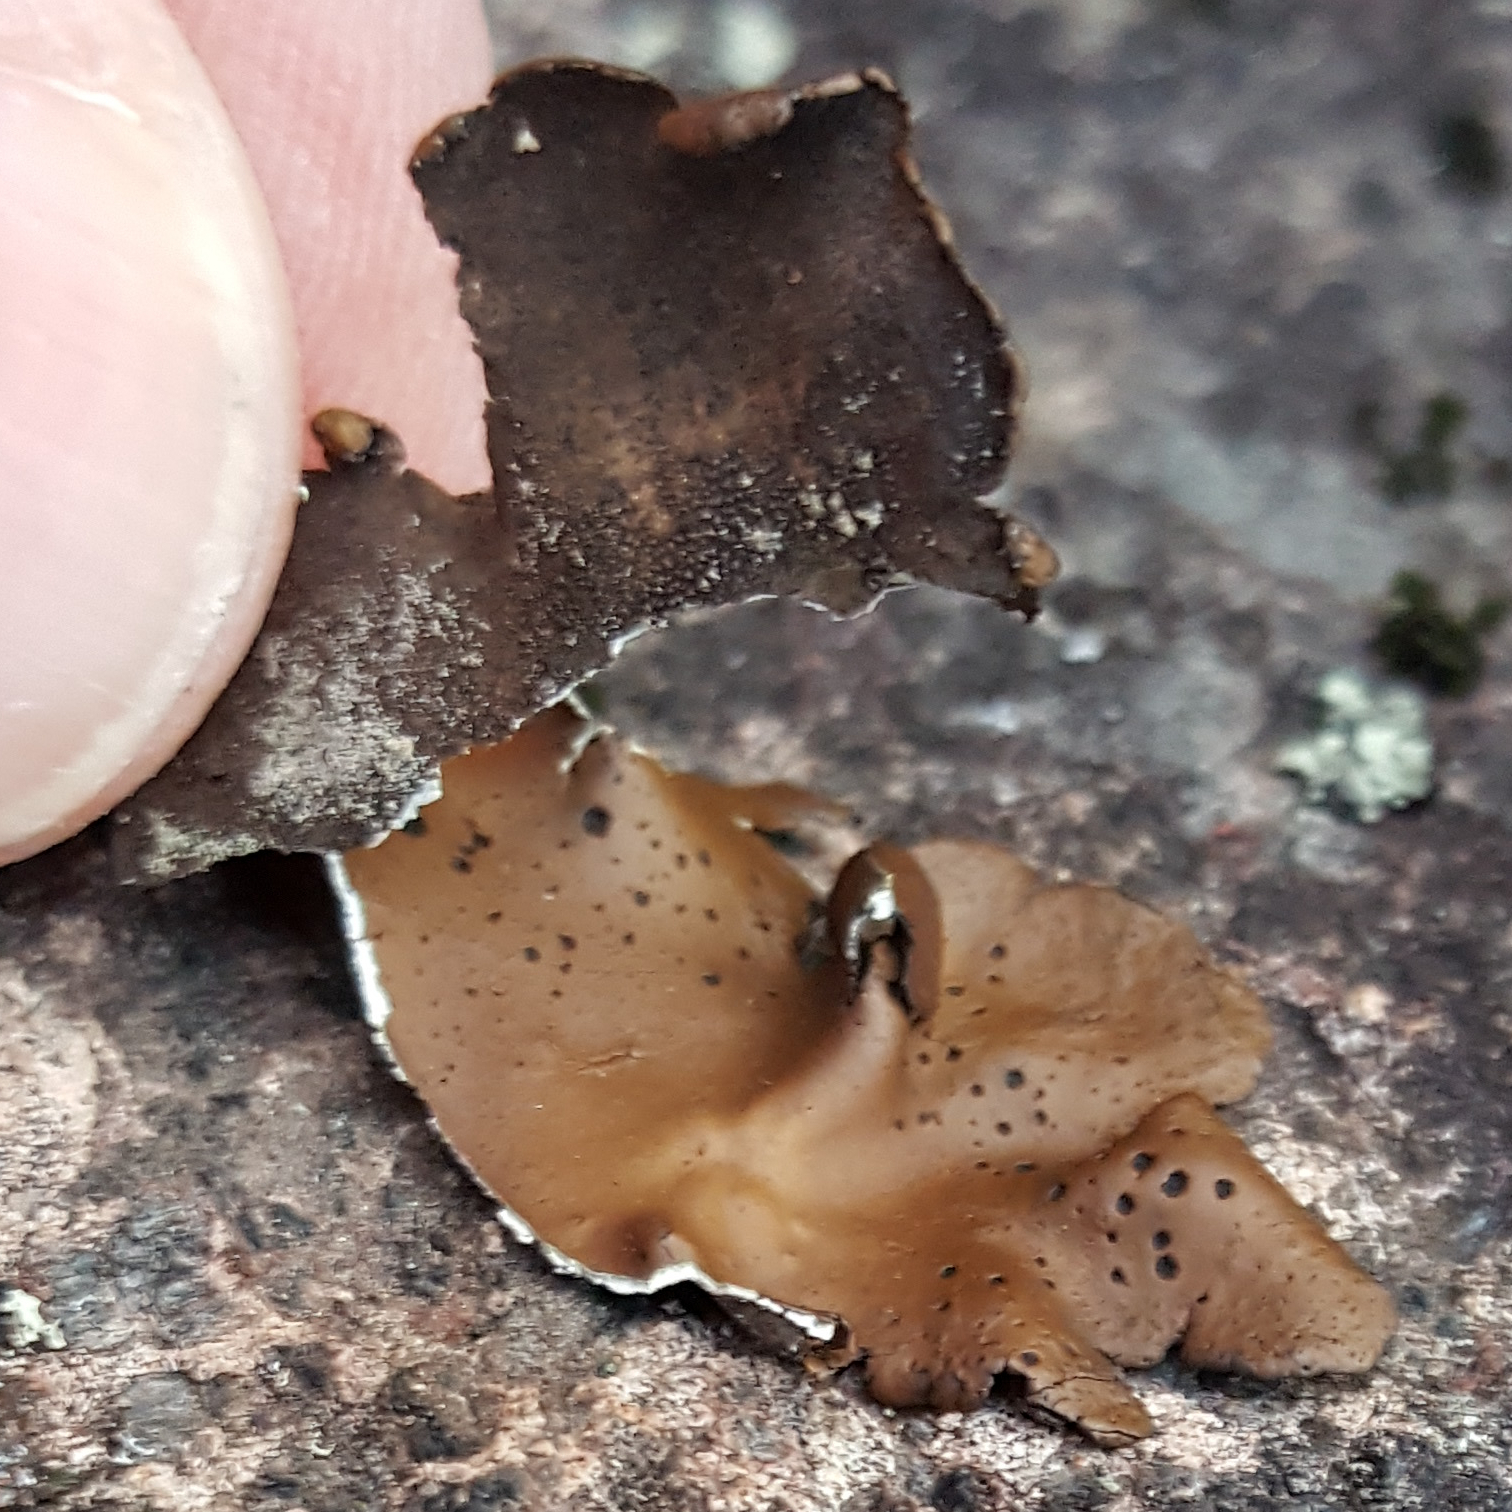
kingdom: Fungi
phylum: Ascomycota
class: Lecanoromycetes
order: Umbilicariales
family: Umbilicariaceae
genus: Umbilicaria
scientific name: Umbilicaria phaea
